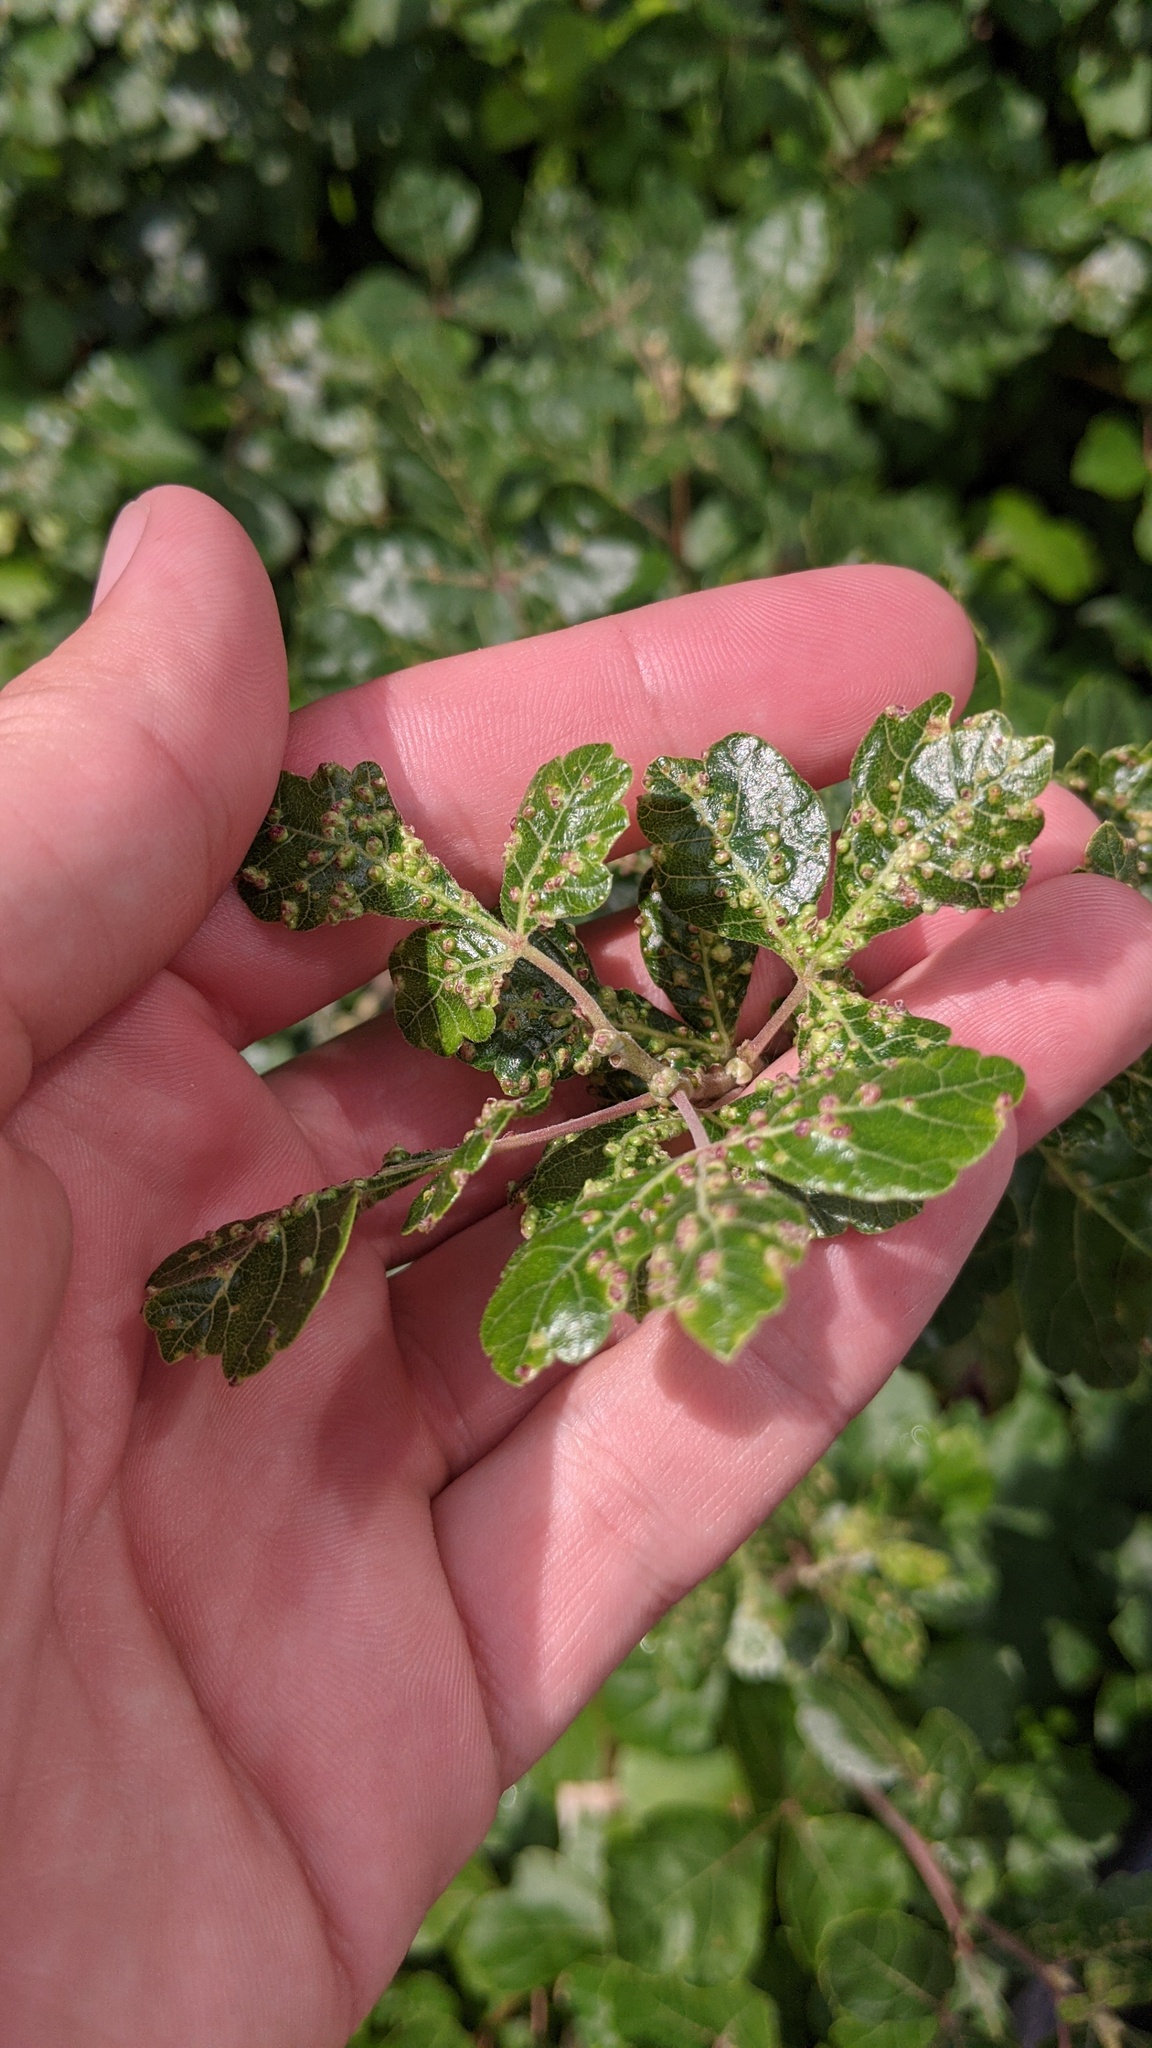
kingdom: Animalia
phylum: Arthropoda
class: Arachnida
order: Trombidiformes
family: Eriophyidae
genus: Aculops
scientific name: Aculops
